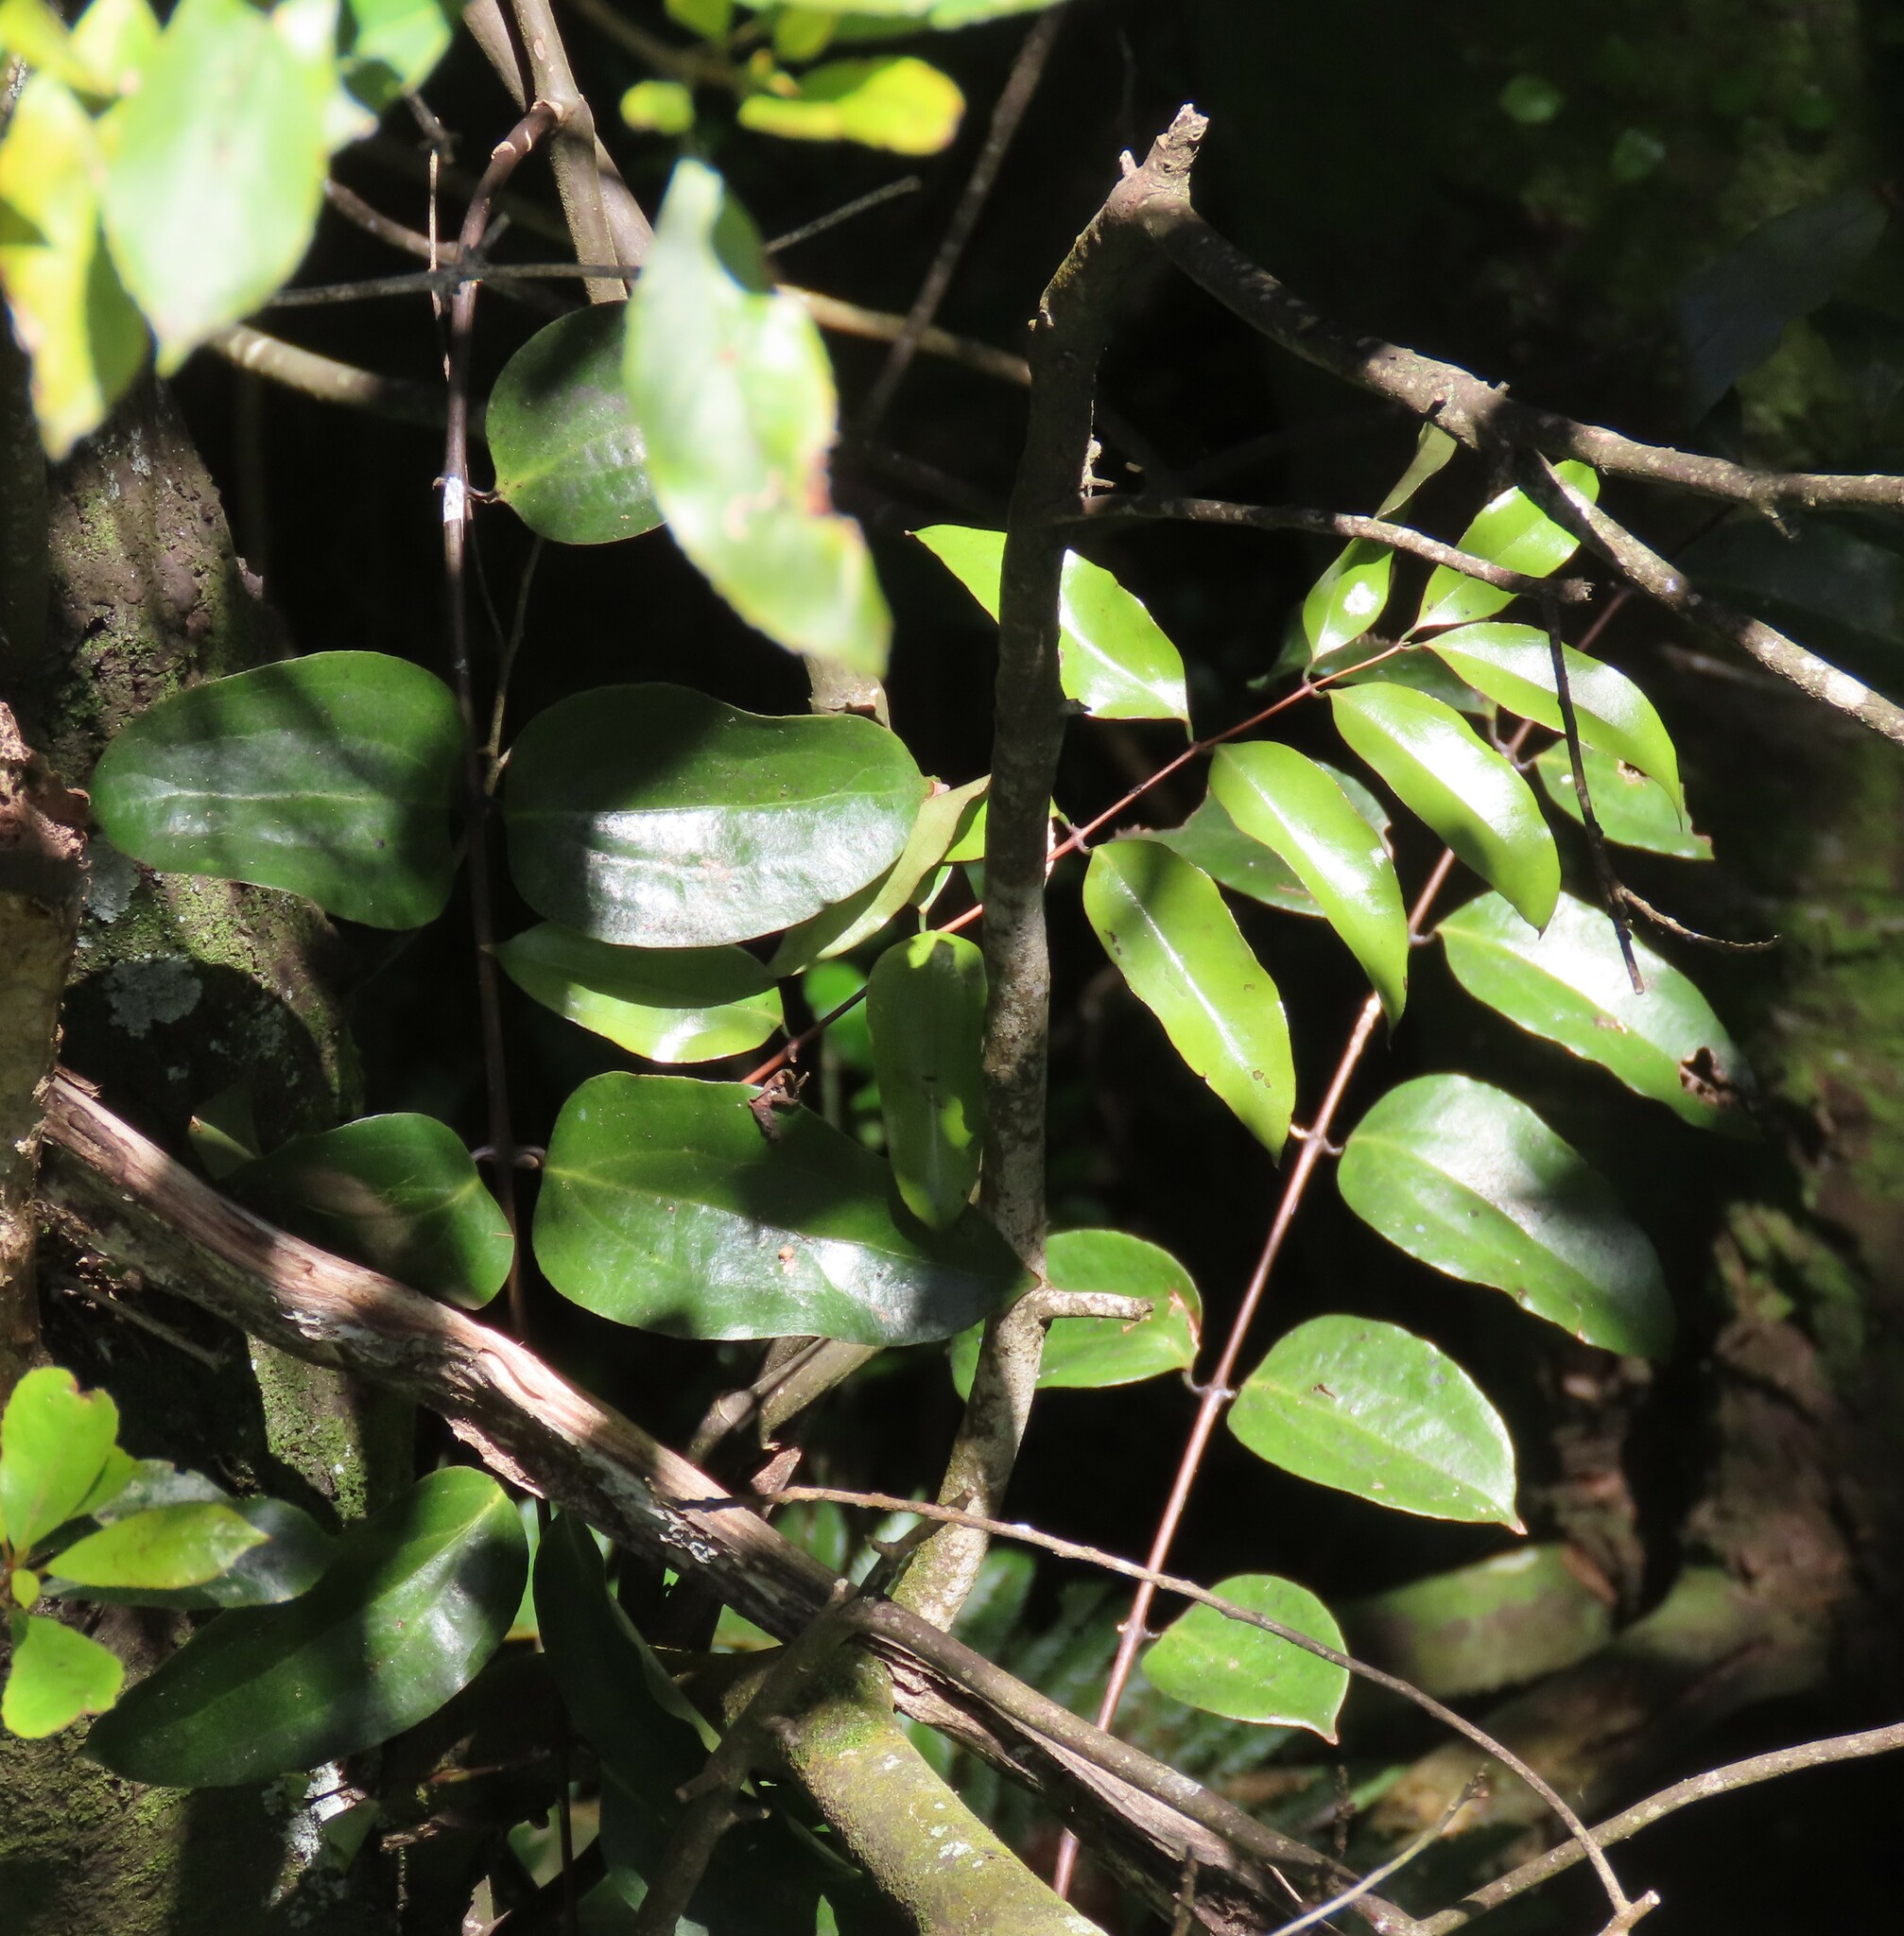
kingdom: Plantae
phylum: Tracheophyta
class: Liliopsida
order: Liliales
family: Ripogonaceae
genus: Ripogonum
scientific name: Ripogonum scandens
